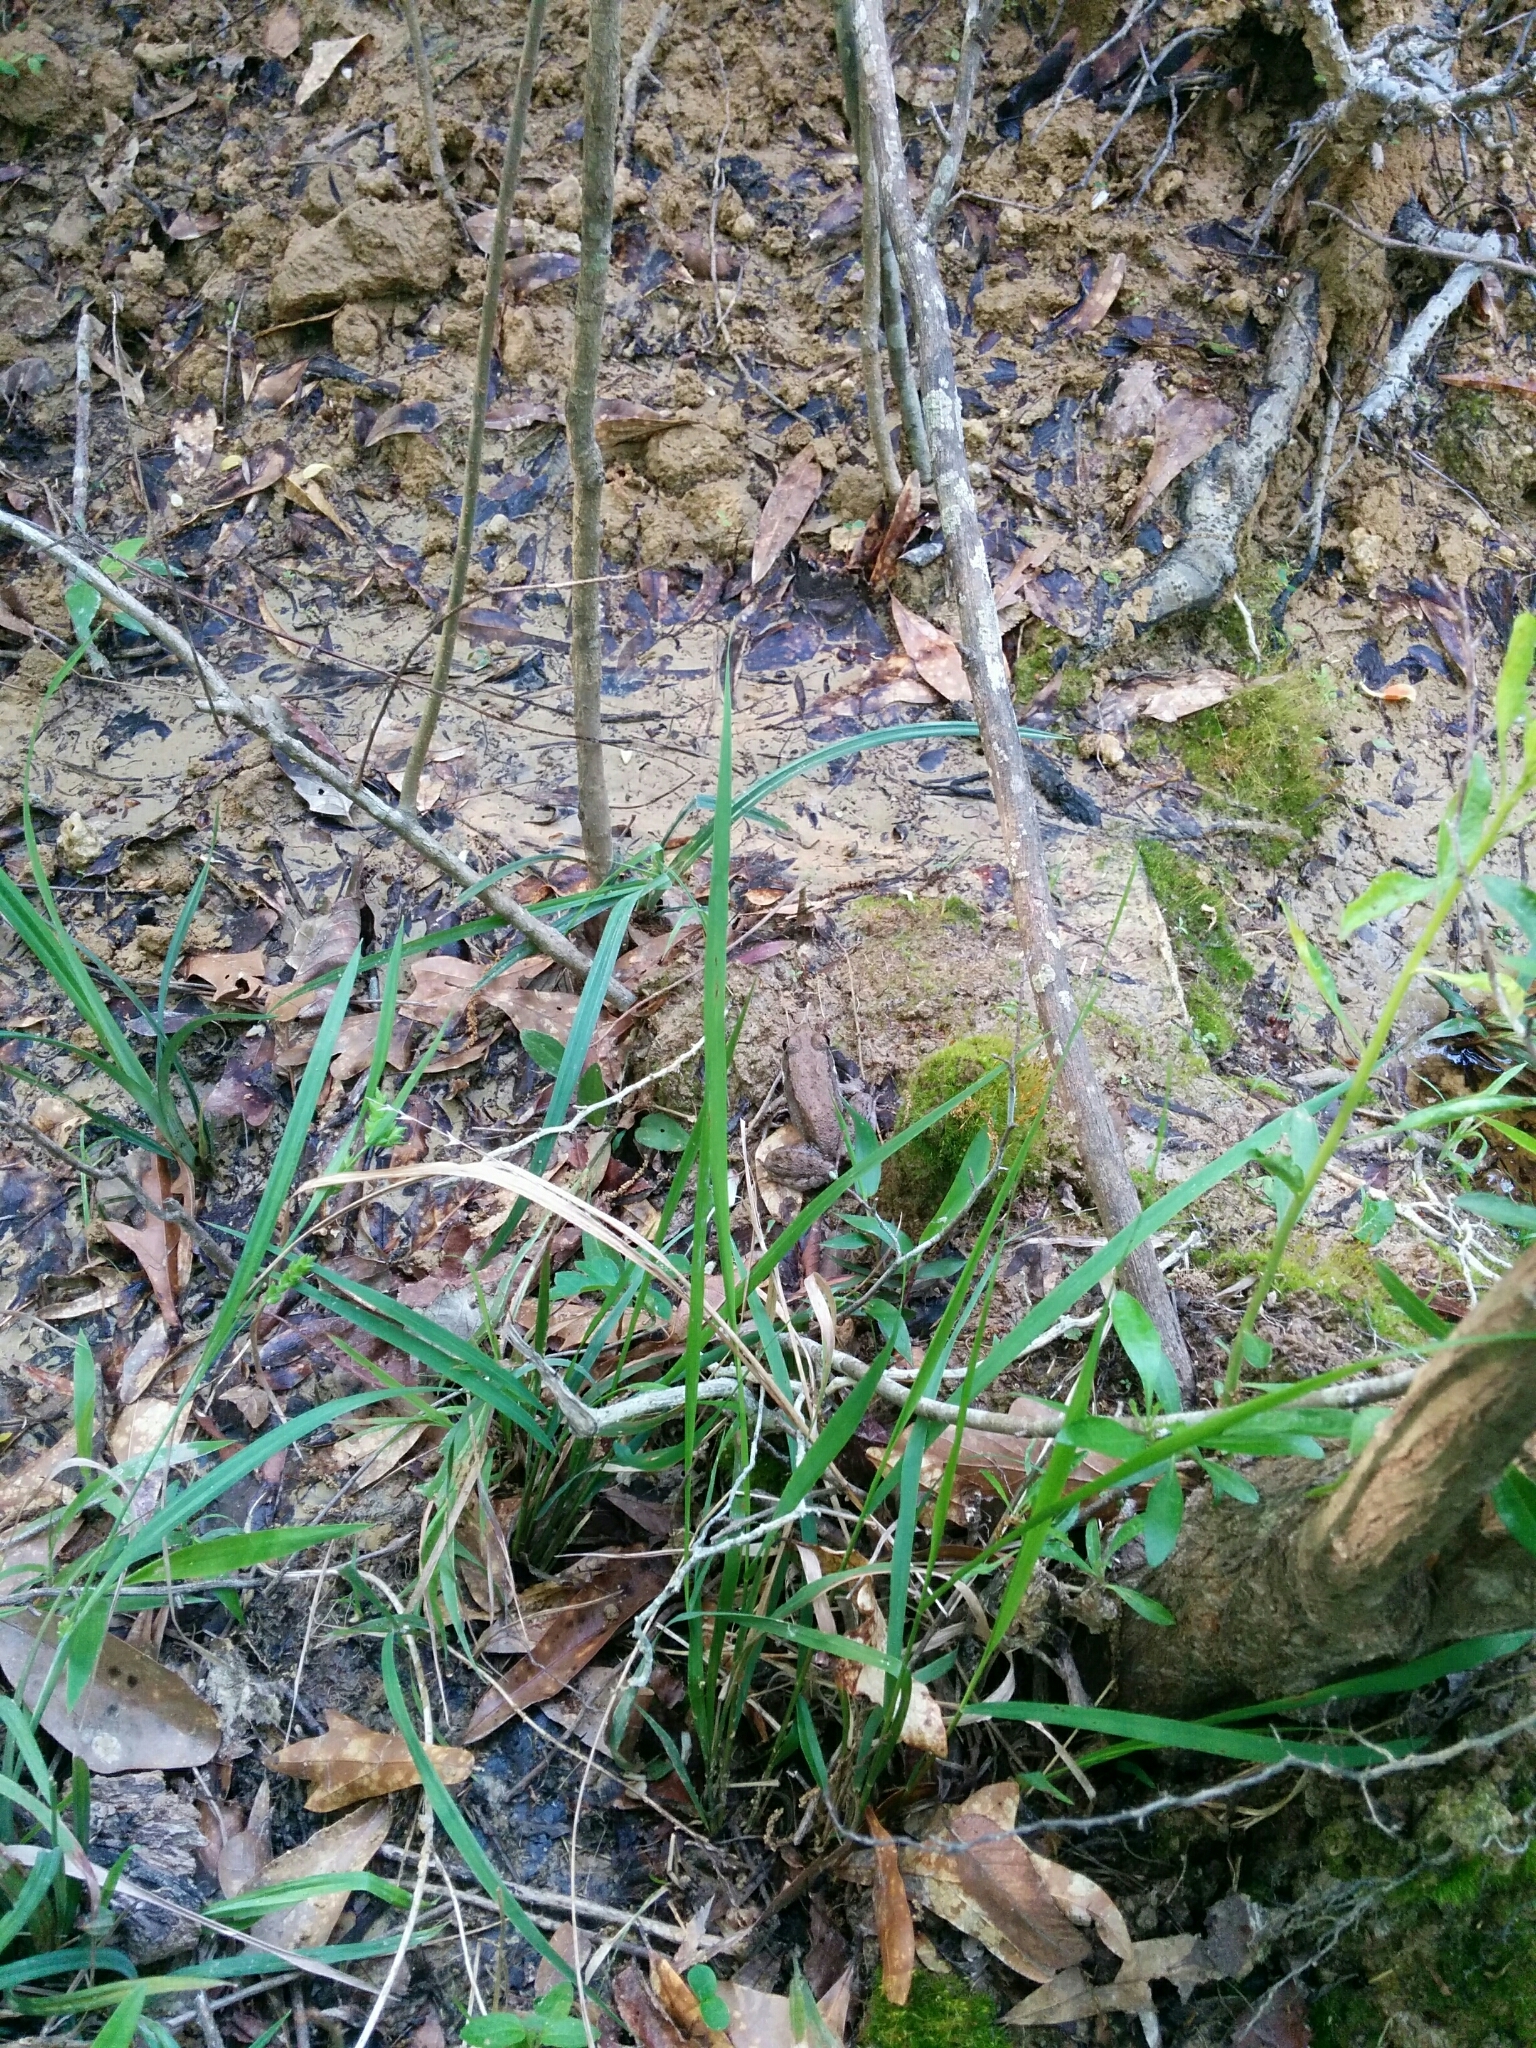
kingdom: Animalia
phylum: Chordata
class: Amphibia
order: Anura
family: Ranidae
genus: Lithobates
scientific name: Lithobates clamitans
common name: Green frog
